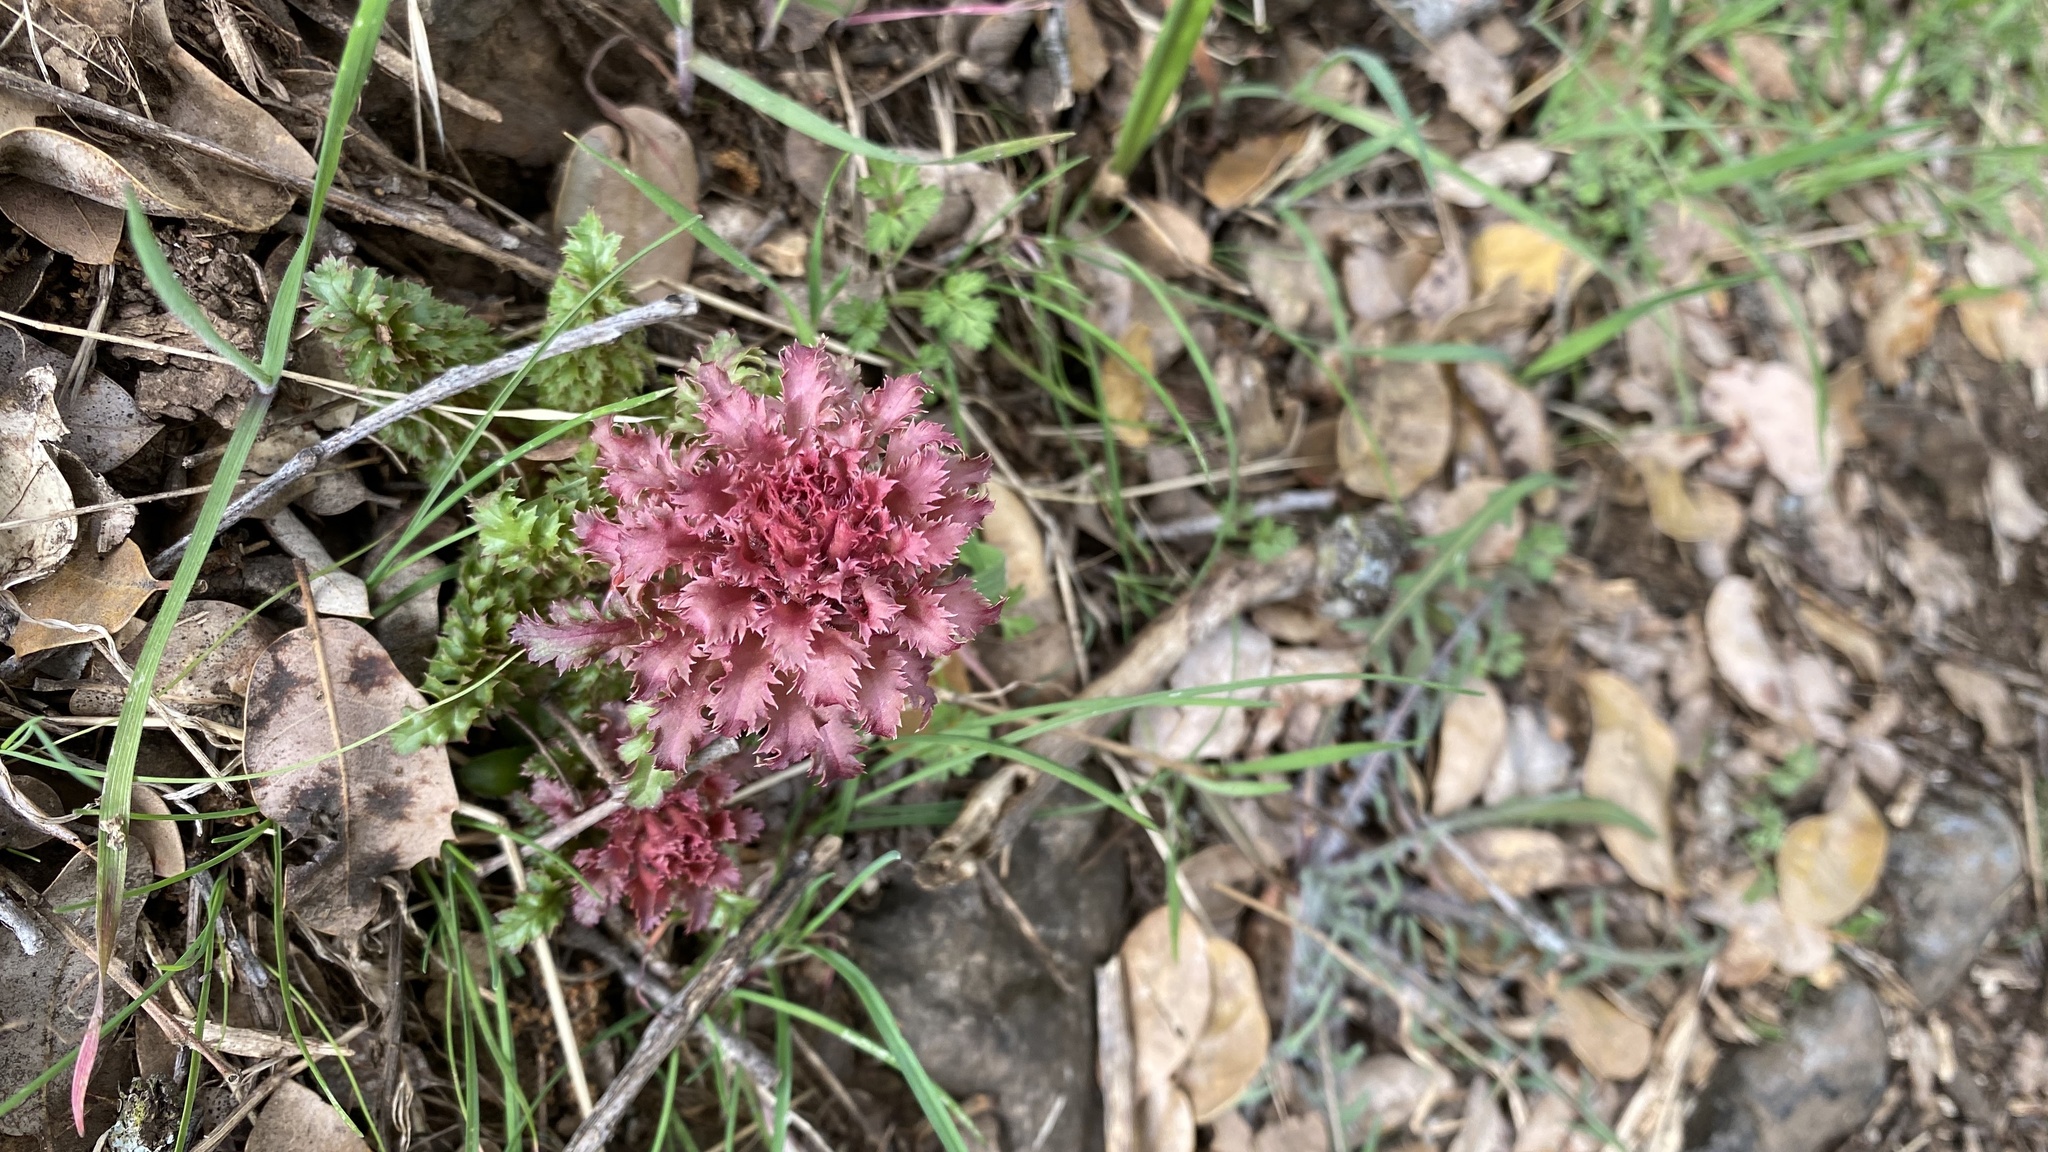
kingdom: Plantae
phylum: Tracheophyta
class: Magnoliopsida
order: Lamiales
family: Orobanchaceae
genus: Pedicularis
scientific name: Pedicularis densiflora
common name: Indian warrior
